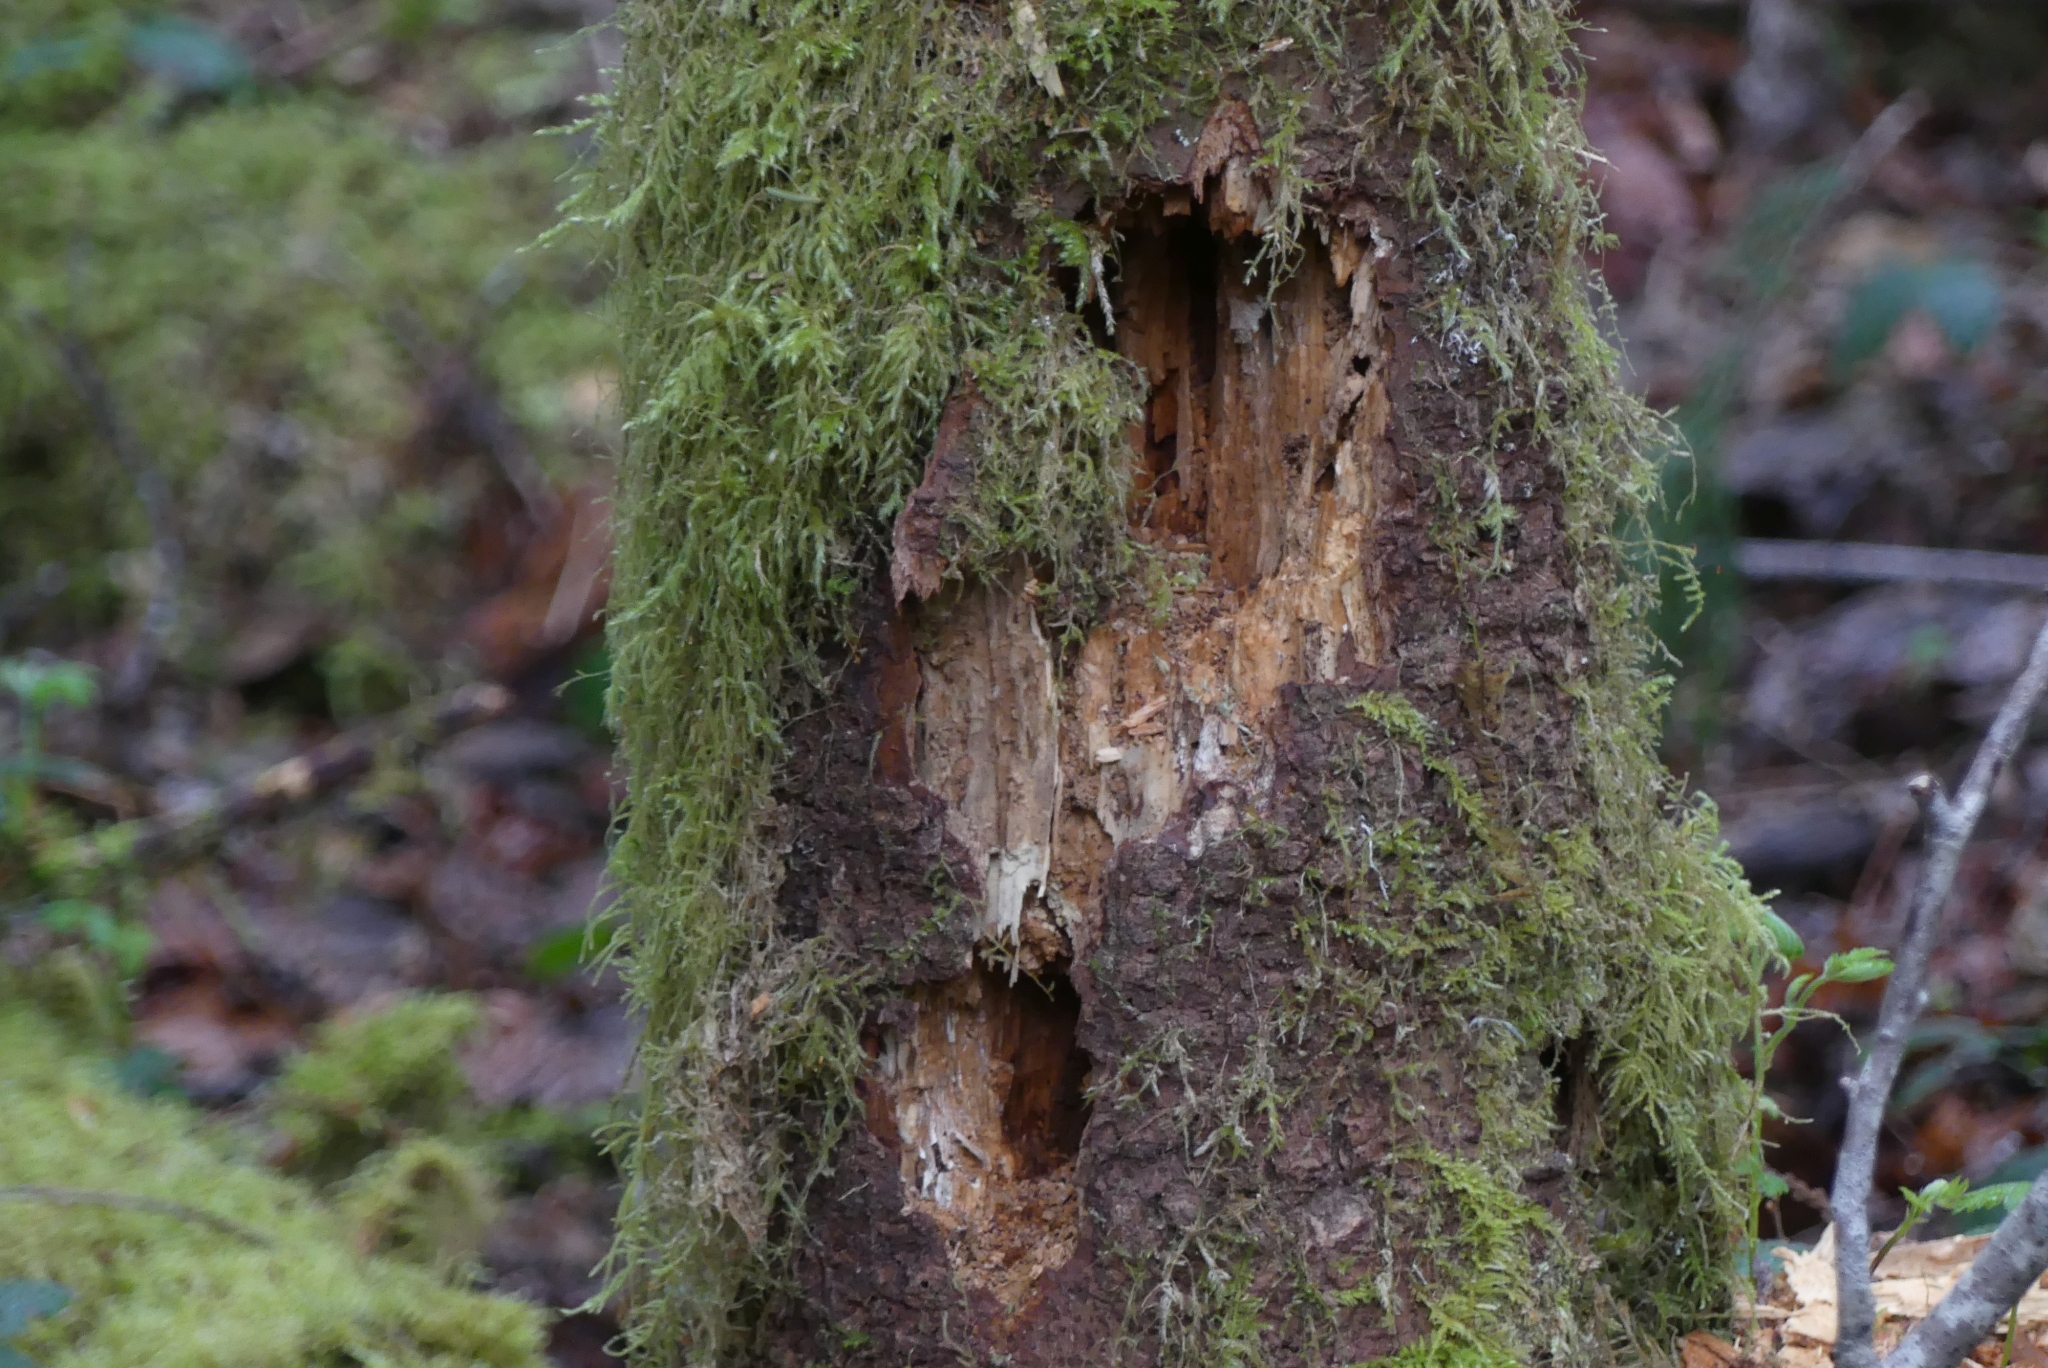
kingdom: Animalia
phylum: Chordata
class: Aves
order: Piciformes
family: Picidae
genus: Dryocopus
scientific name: Dryocopus pileatus
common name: Pileated woodpecker
